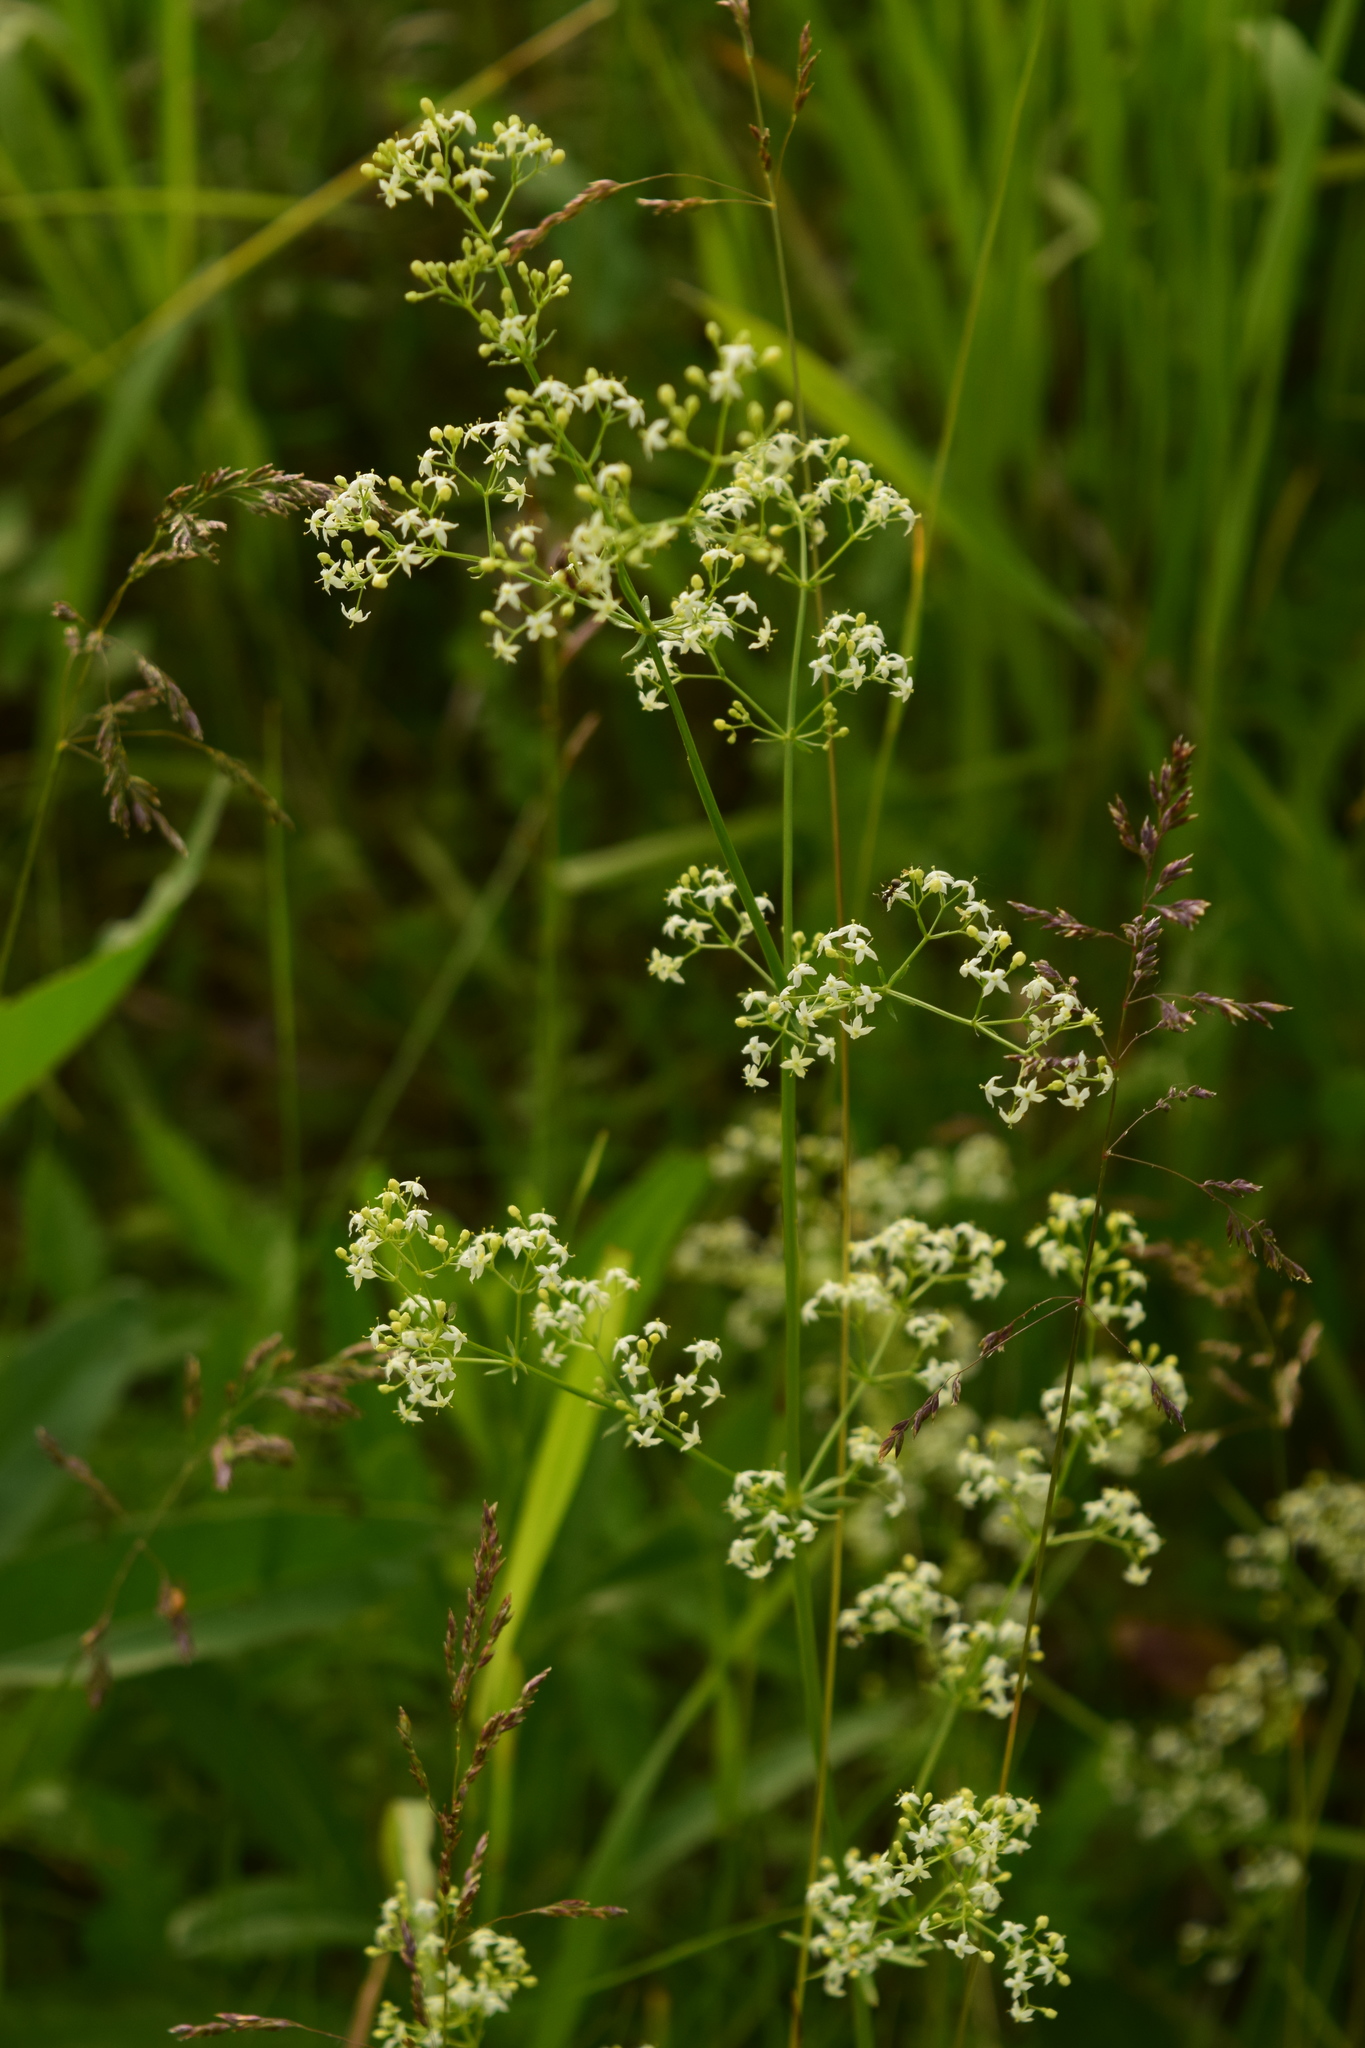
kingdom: Plantae
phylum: Tracheophyta
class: Magnoliopsida
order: Gentianales
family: Rubiaceae
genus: Galium
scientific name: Galium mollugo
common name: Hedge bedstraw
